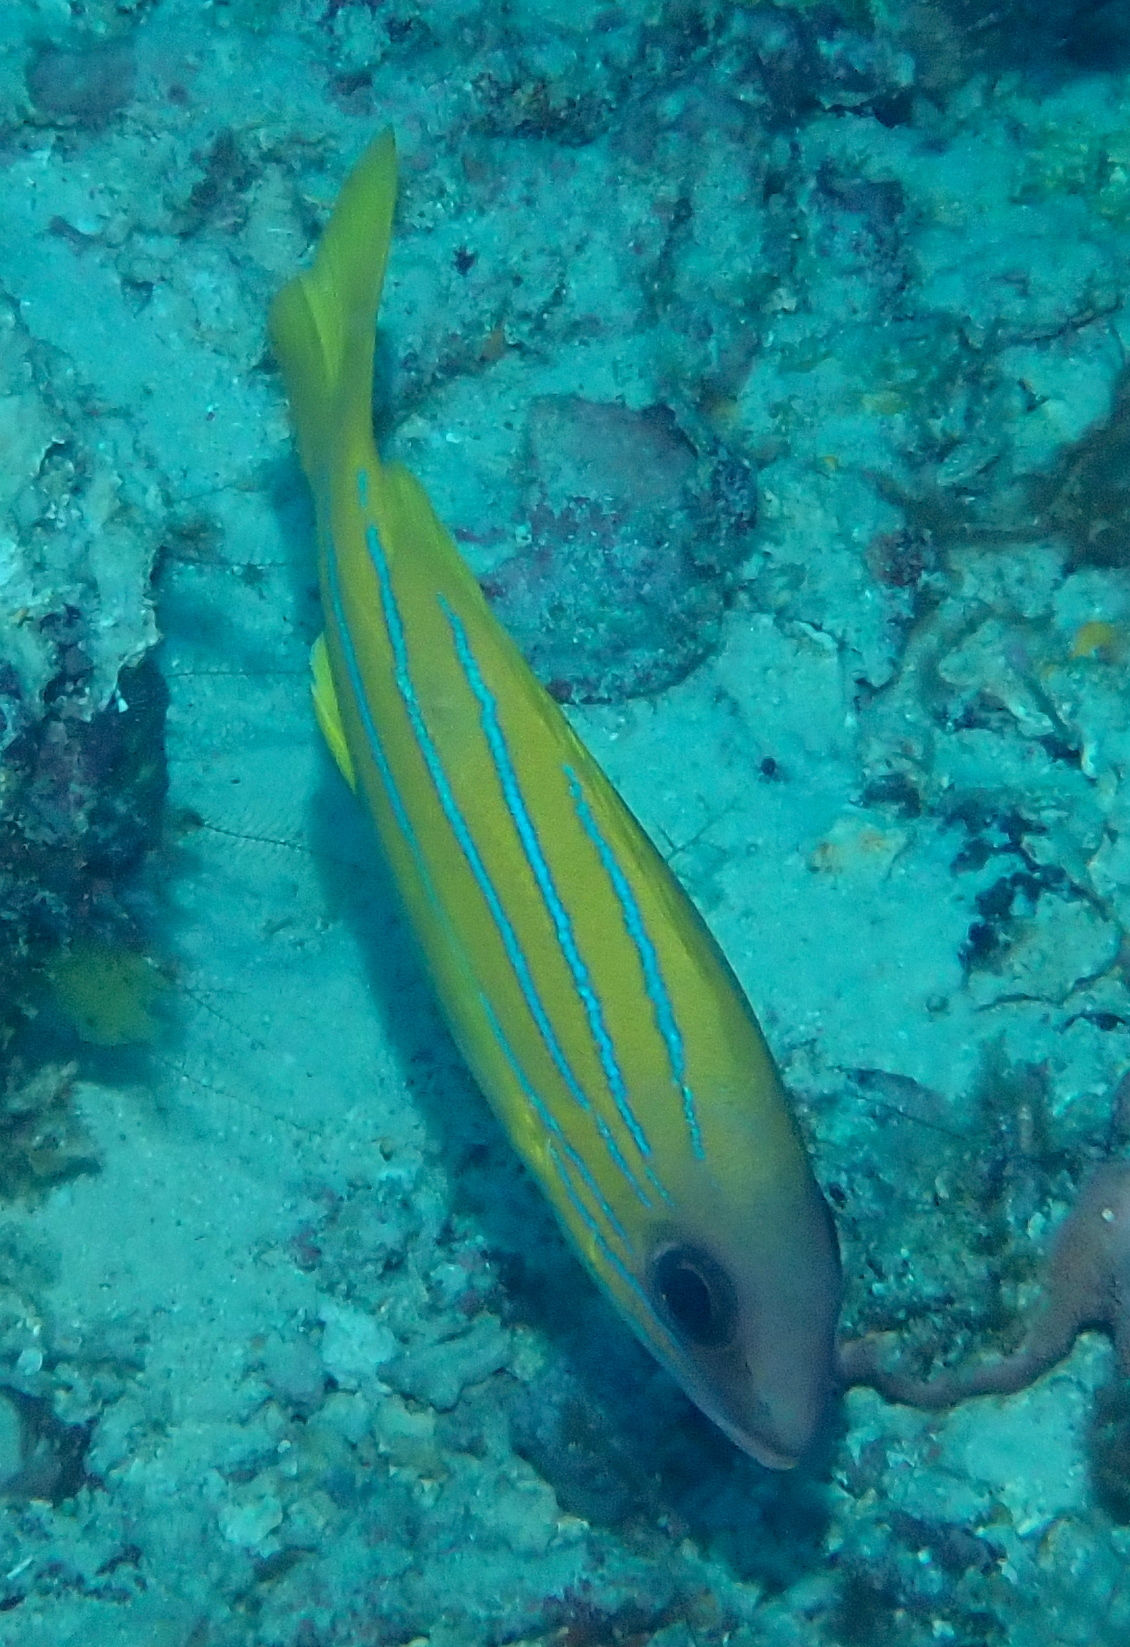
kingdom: Animalia
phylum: Chordata
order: Perciformes
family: Lutjanidae
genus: Lutjanus
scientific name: Lutjanus kasmira
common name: Common bluestripe snapper
